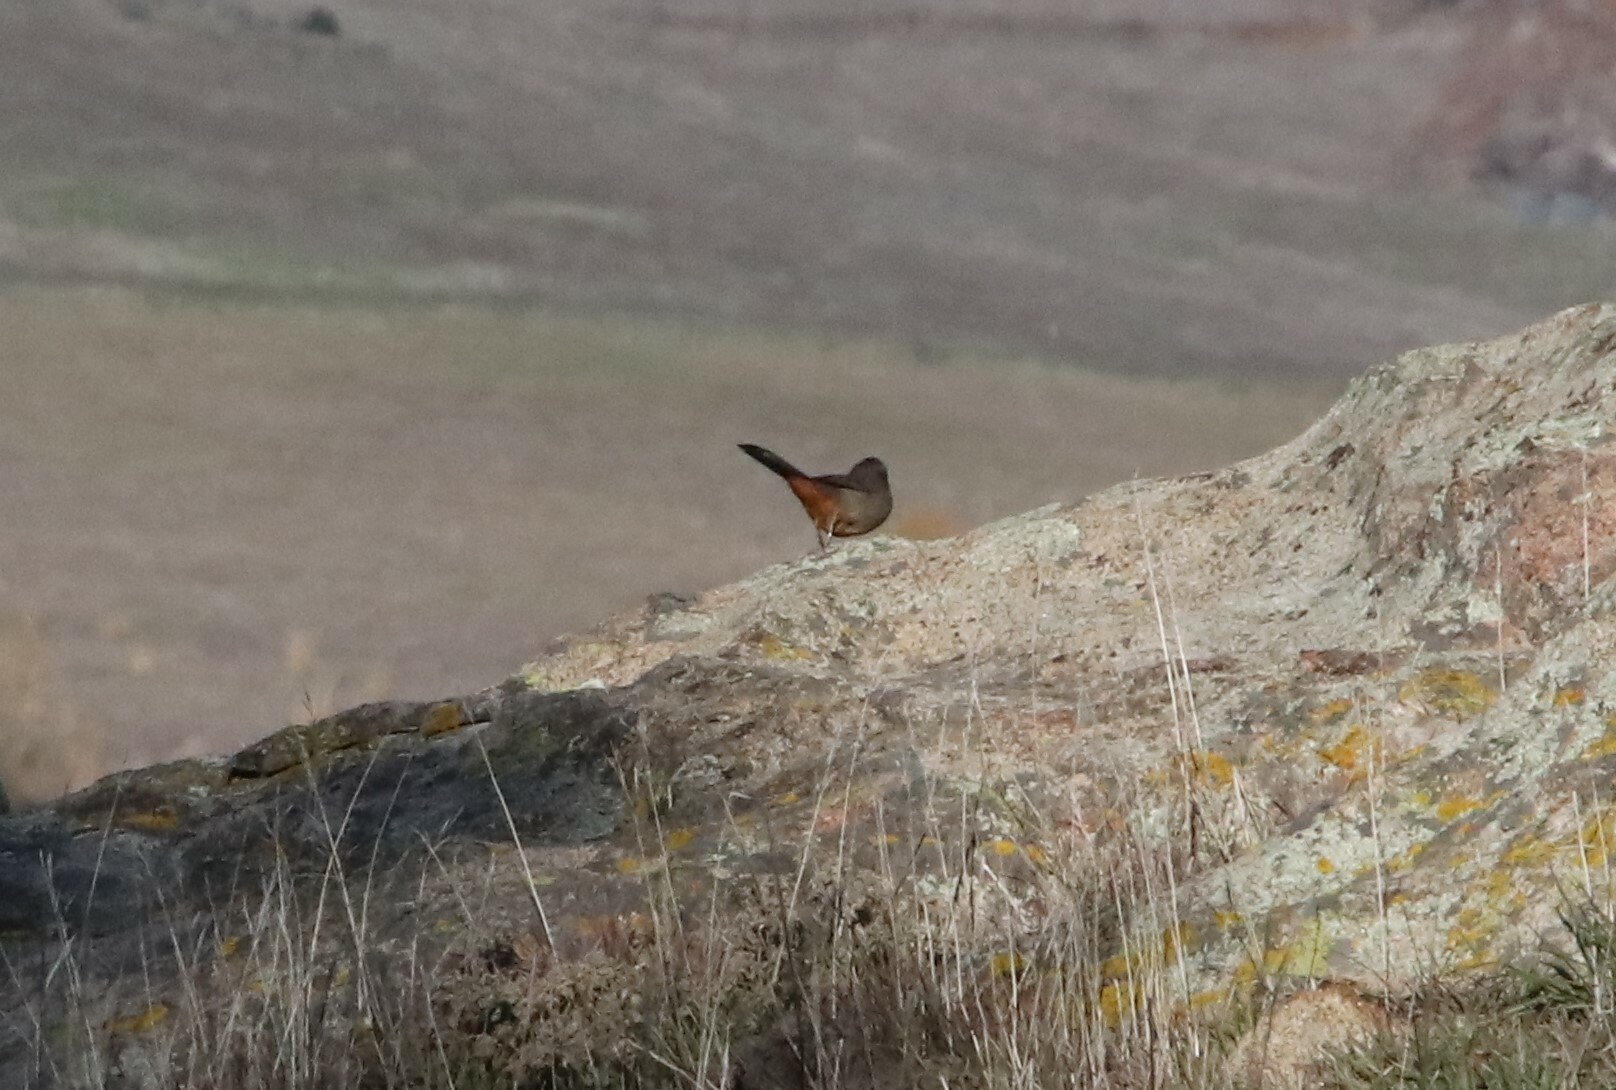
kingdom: Animalia
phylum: Chordata
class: Aves
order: Passeriformes
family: Passerellidae
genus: Melozone
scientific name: Melozone crissalis
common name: California towhee
